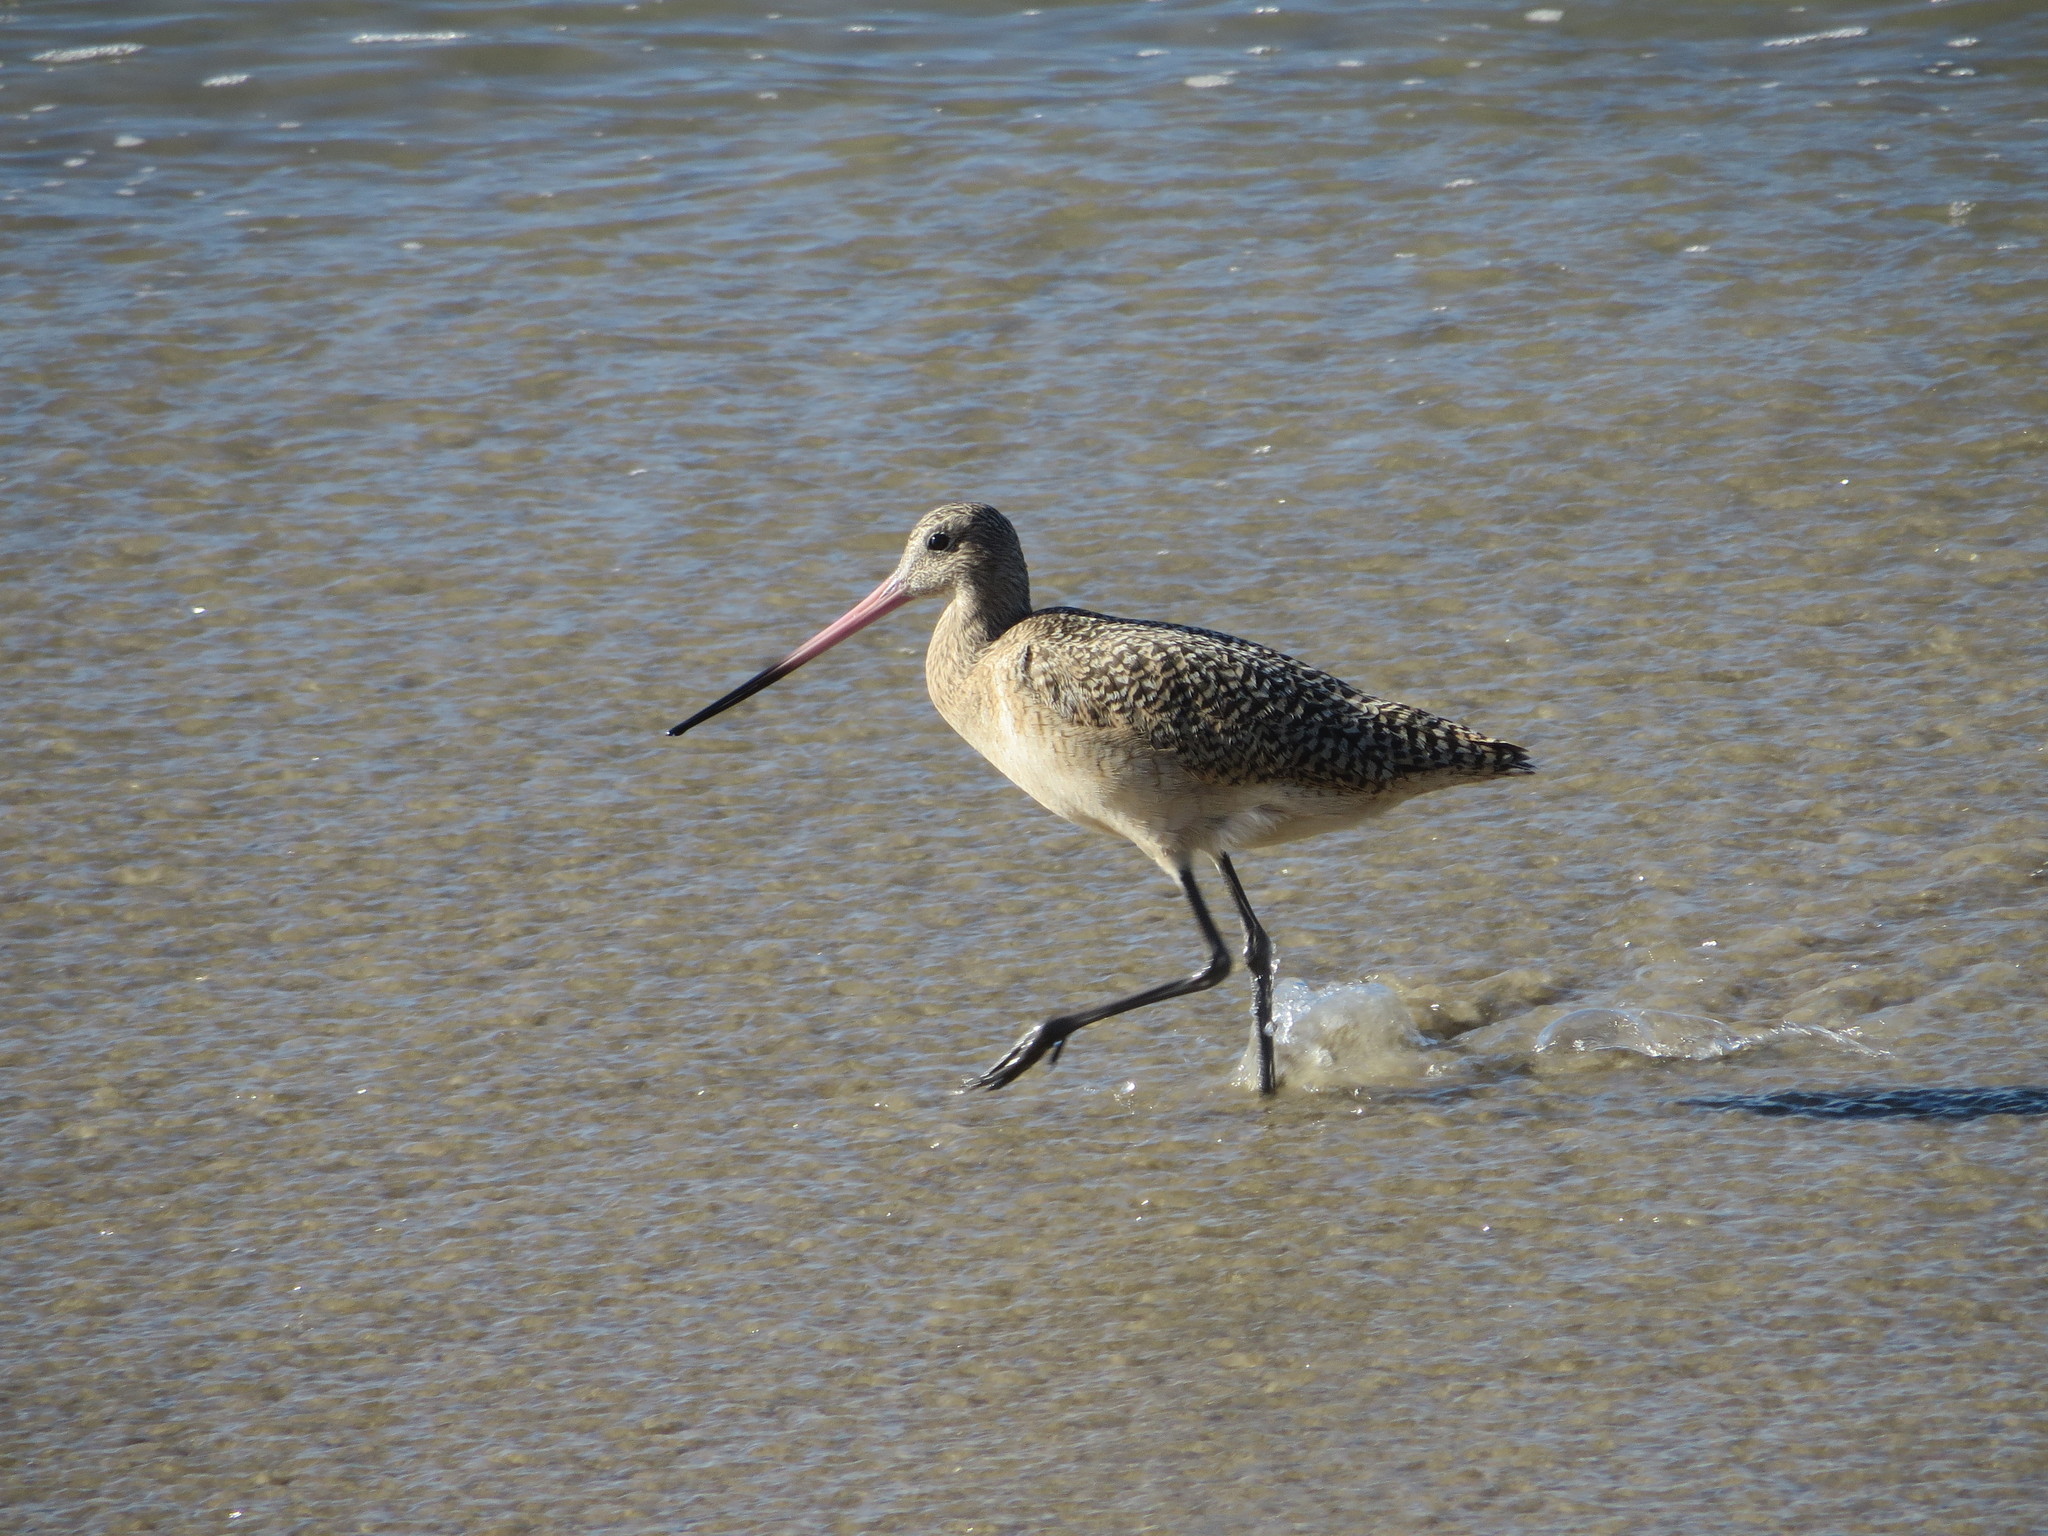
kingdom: Animalia
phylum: Chordata
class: Aves
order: Charadriiformes
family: Scolopacidae
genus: Limosa
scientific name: Limosa fedoa
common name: Marbled godwit
